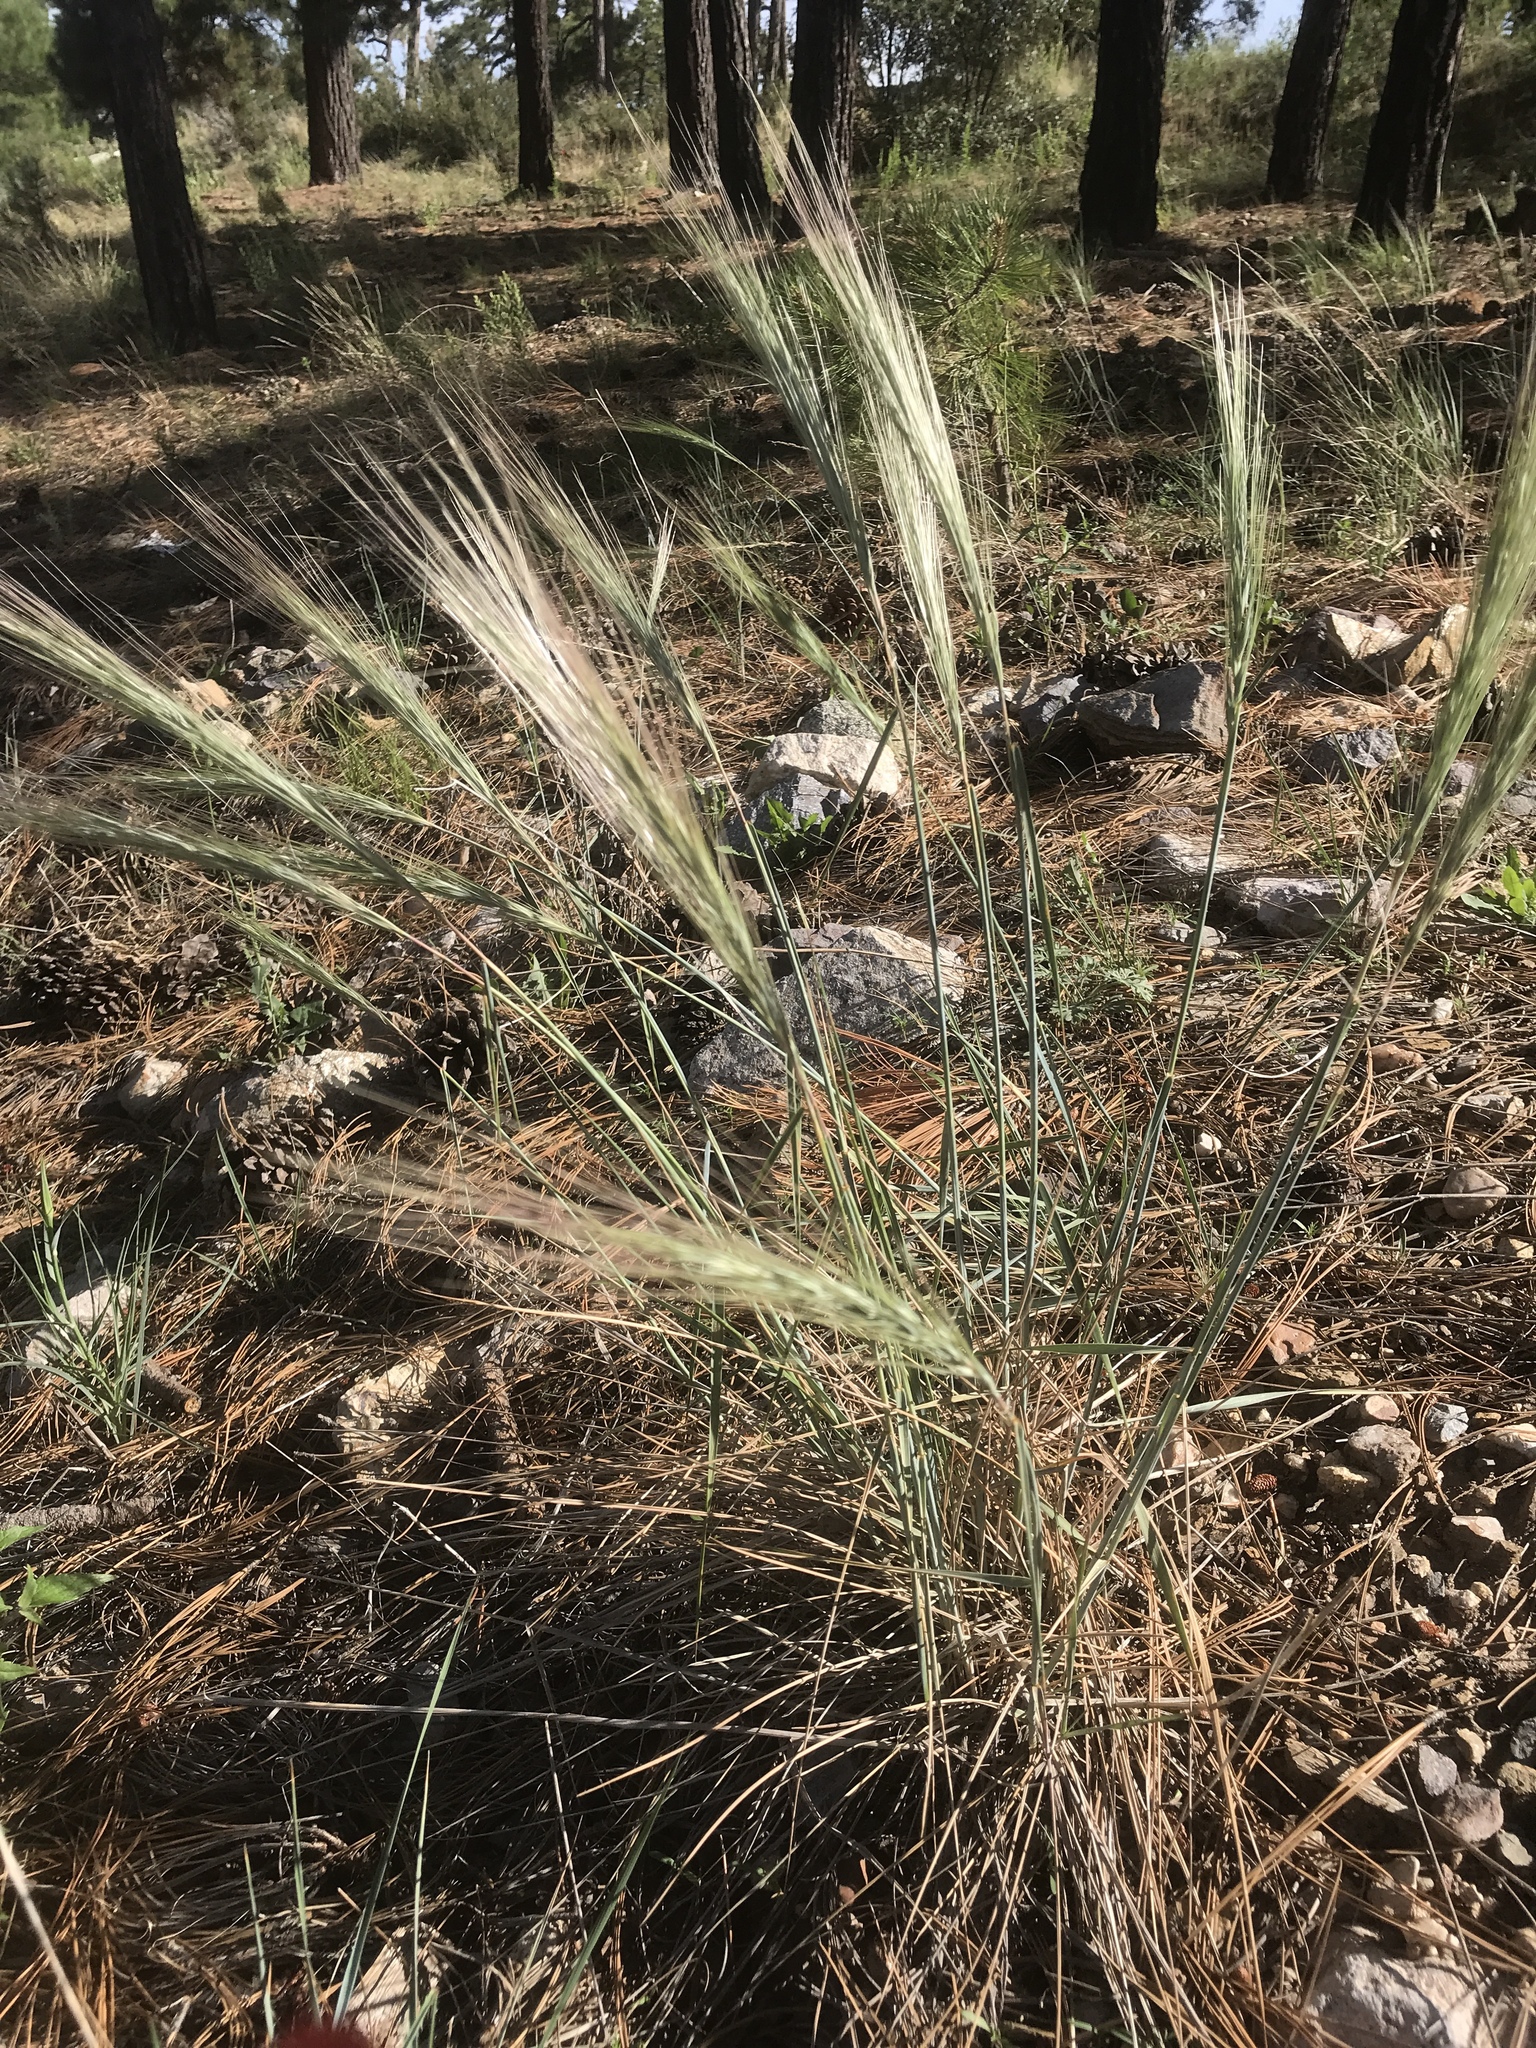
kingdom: Plantae
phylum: Tracheophyta
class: Liliopsida
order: Poales
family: Poaceae
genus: Elymus
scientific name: Elymus elymoides
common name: Bottlebrush squirreltail
